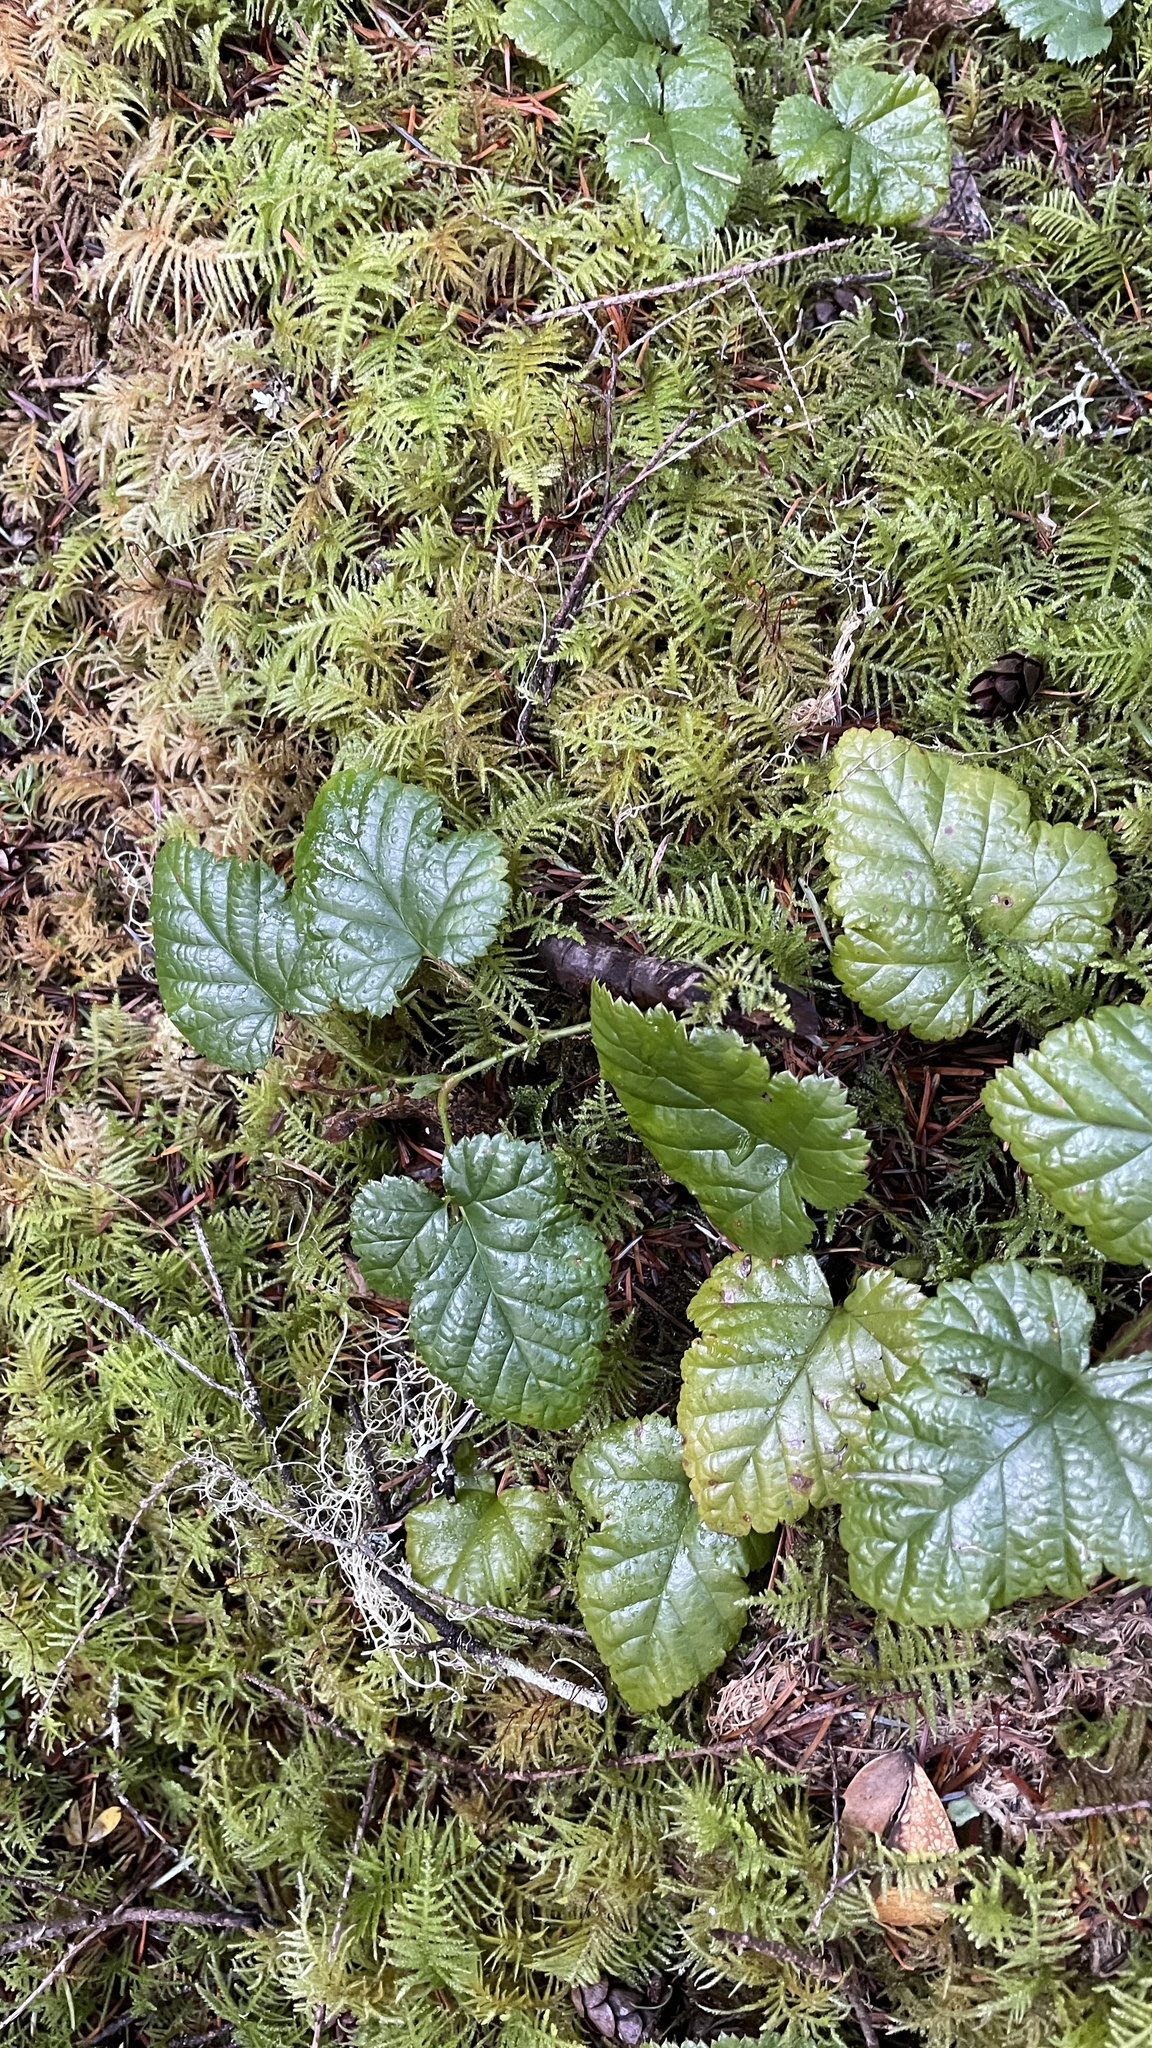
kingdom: Plantae
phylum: Tracheophyta
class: Magnoliopsida
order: Rosales
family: Rosaceae
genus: Rubus
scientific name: Rubus nivalis
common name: Dwarf snow bramble
